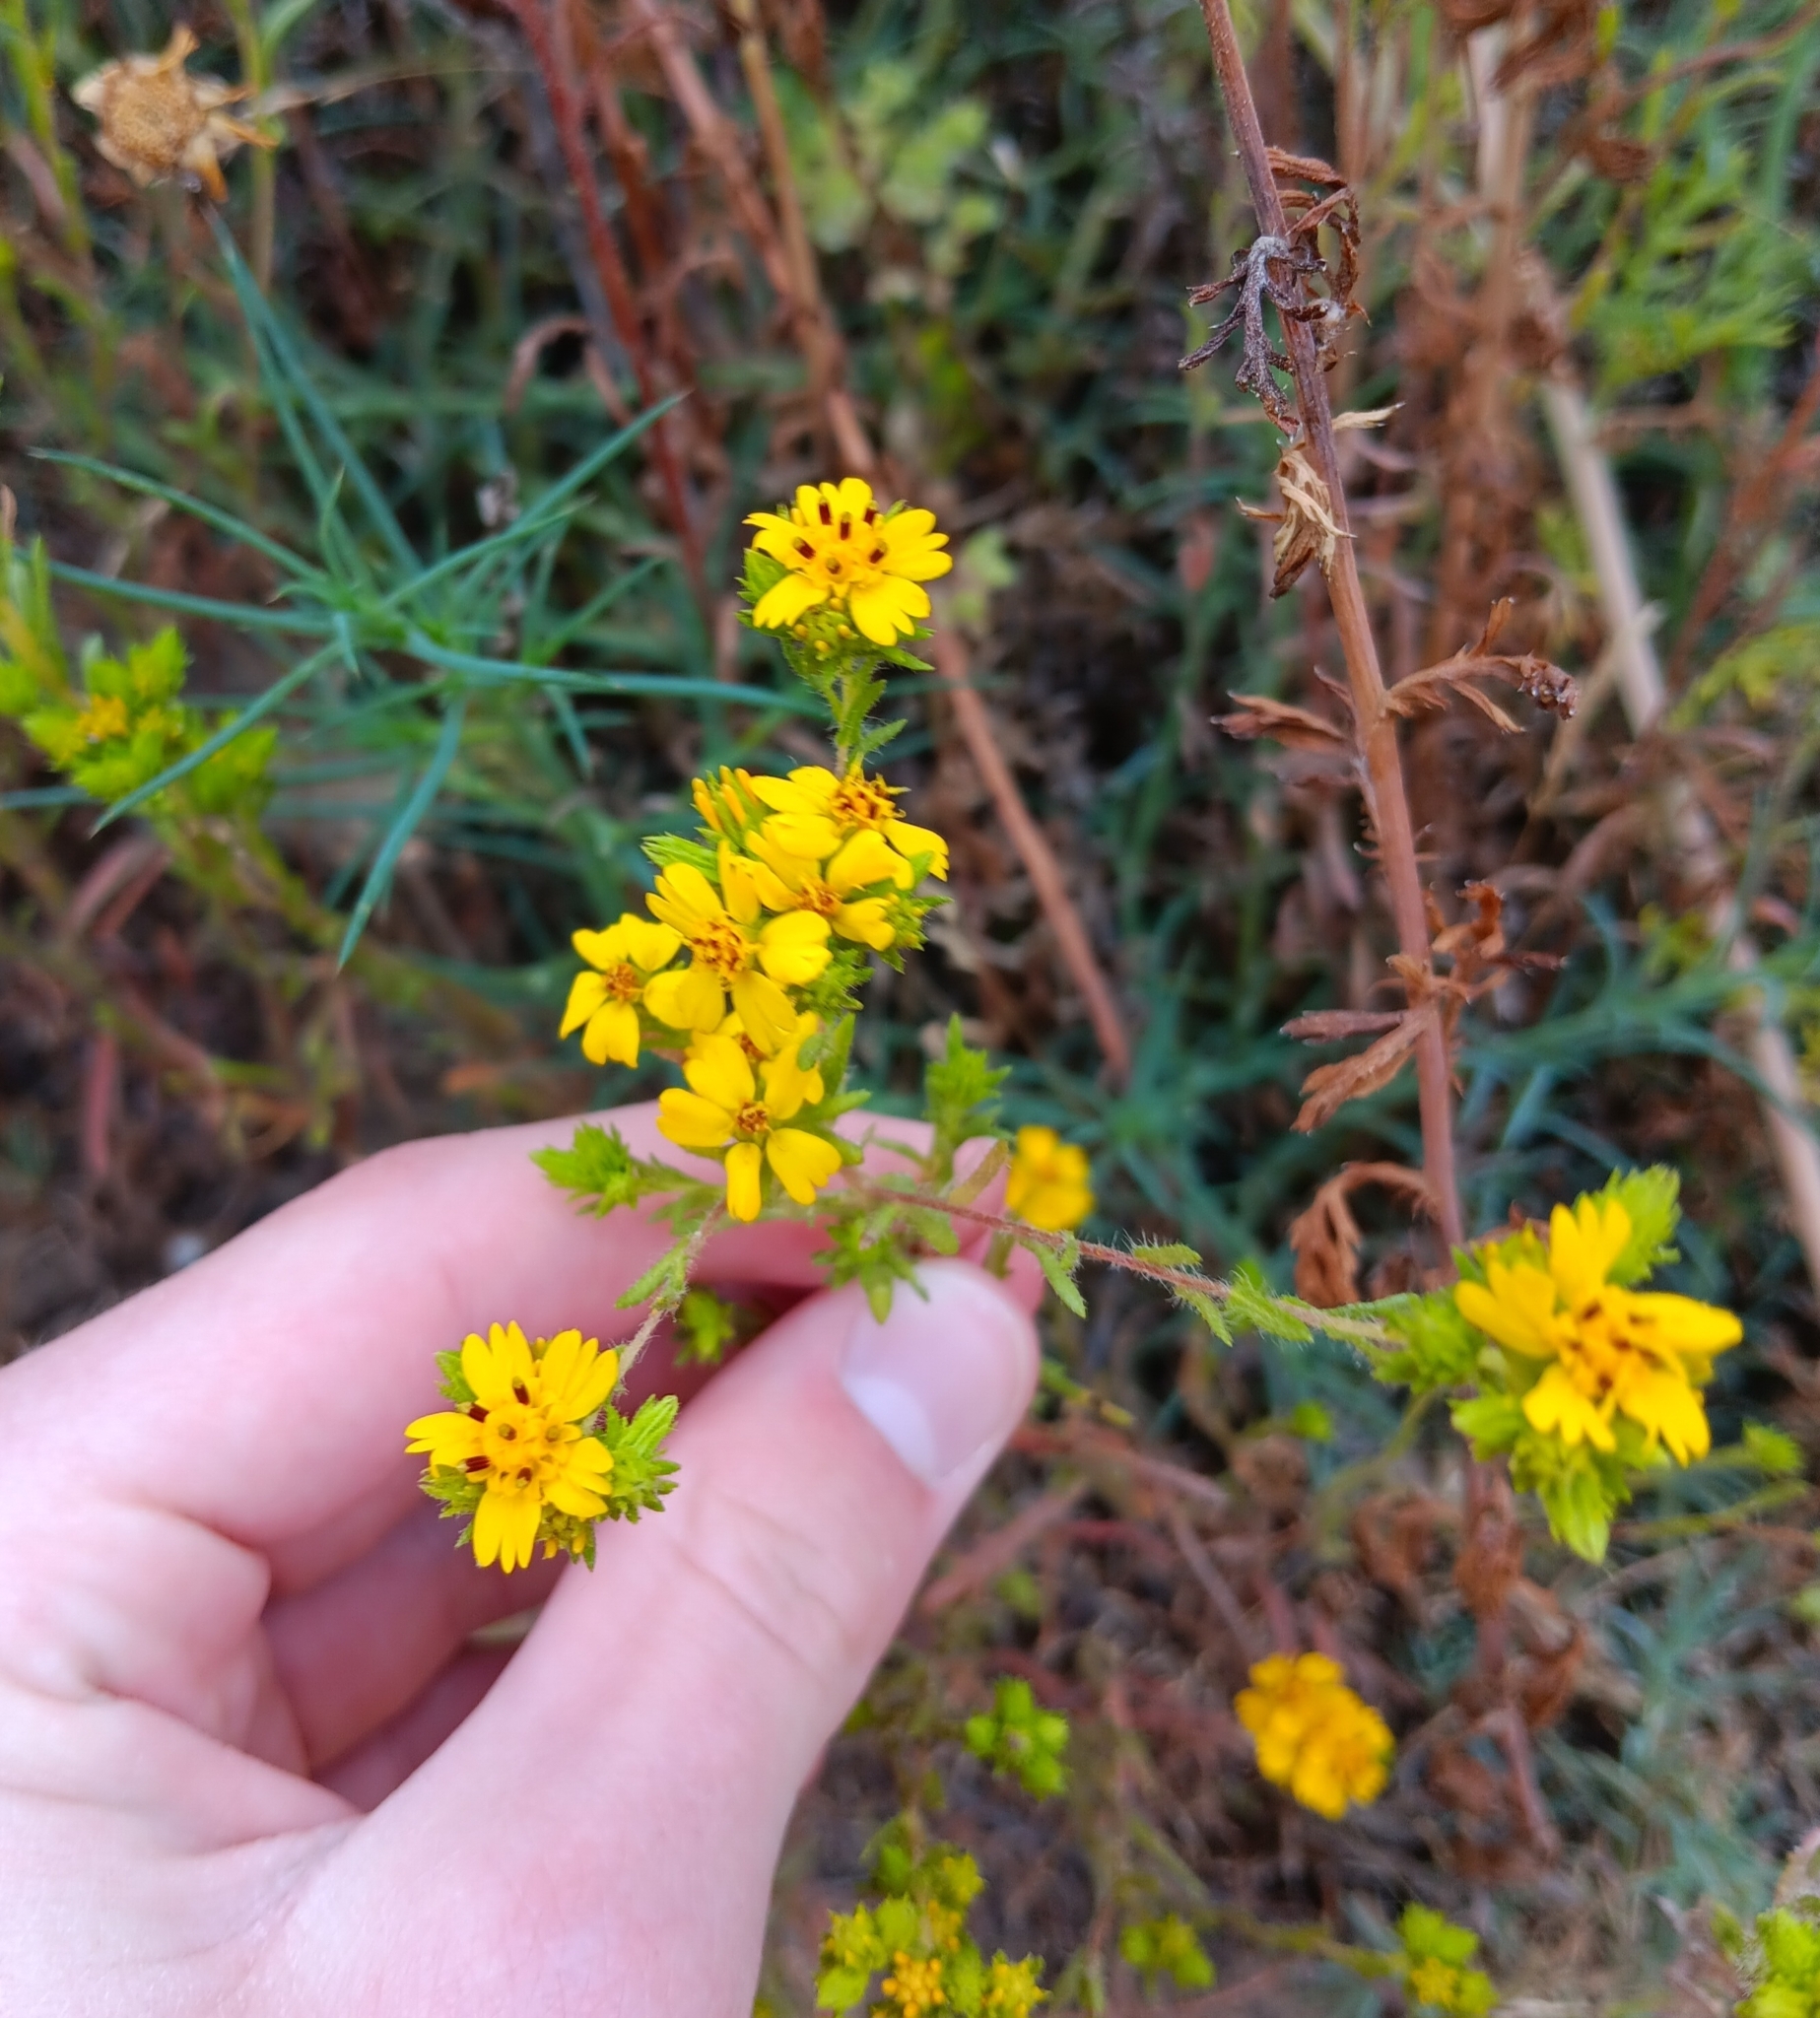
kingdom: Plantae
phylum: Tracheophyta
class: Magnoliopsida
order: Asterales
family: Asteraceae
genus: Deinandra
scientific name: Deinandra fasciculata
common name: Clustered tarweed
